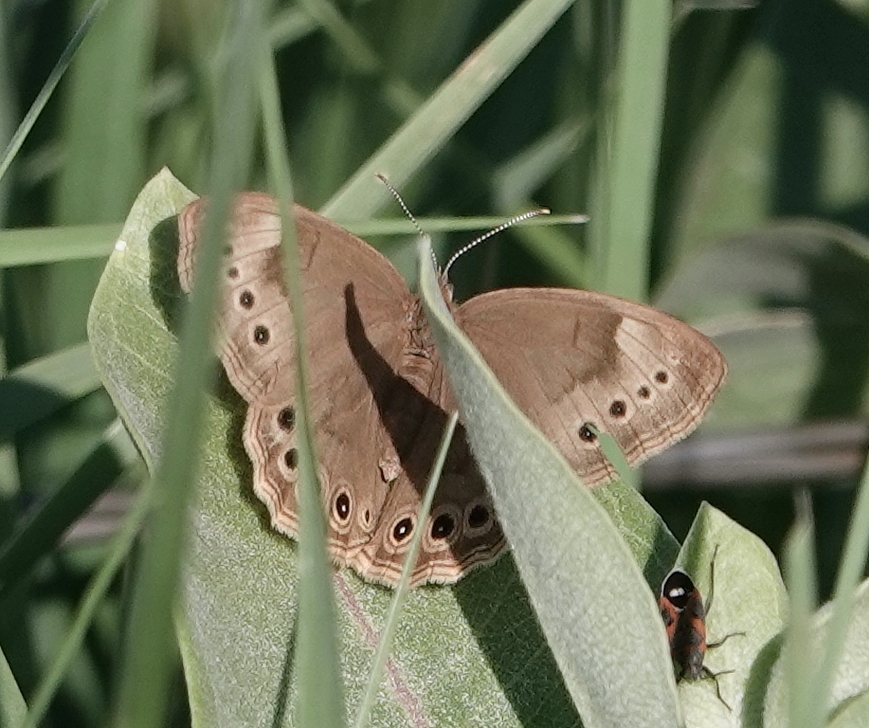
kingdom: Animalia
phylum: Arthropoda
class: Insecta
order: Lepidoptera
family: Nymphalidae
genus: Lethe
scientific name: Lethe eurydice
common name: Eyed brown
